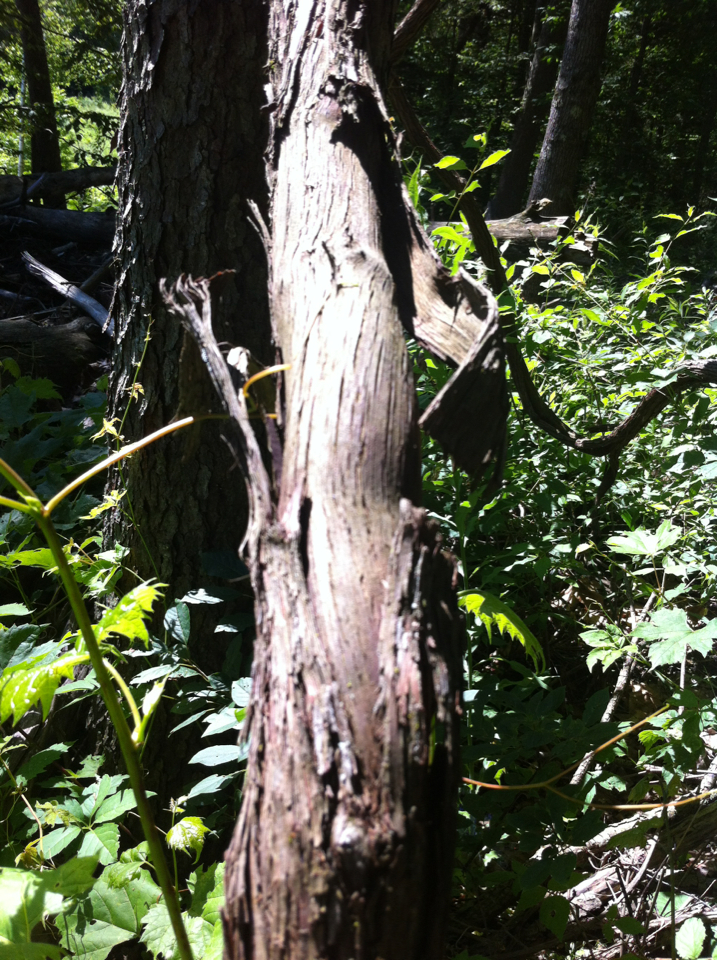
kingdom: Plantae
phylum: Tracheophyta
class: Magnoliopsida
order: Vitales
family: Vitaceae
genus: Vitis
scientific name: Vitis riparia
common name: Frost grape
